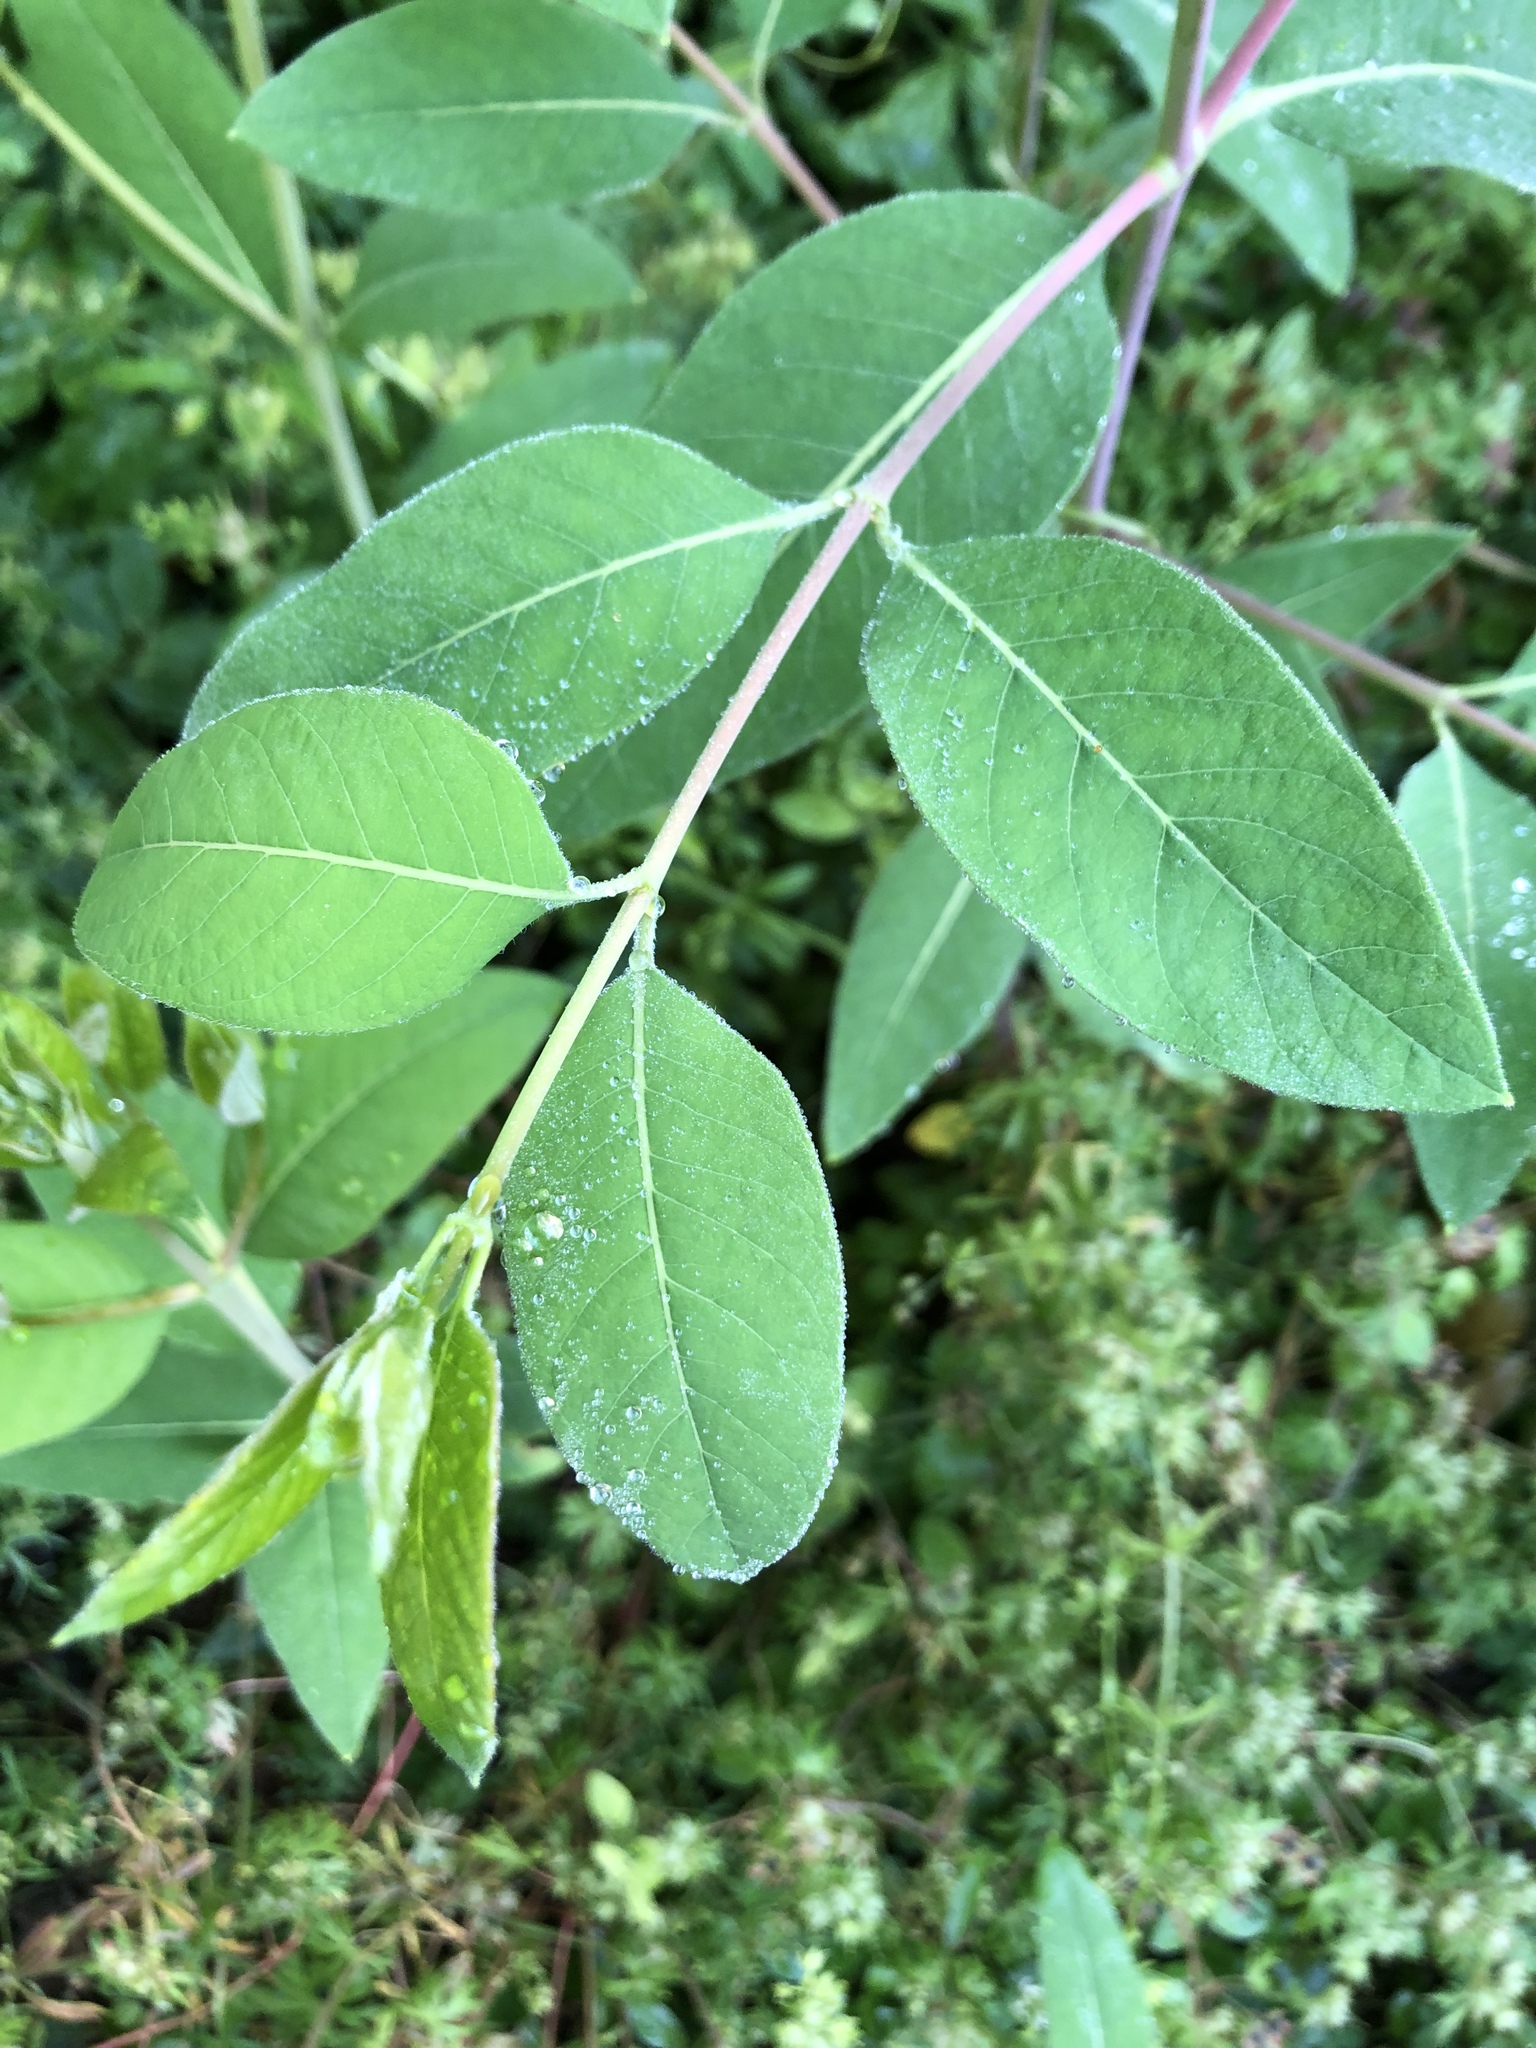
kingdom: Plantae
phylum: Tracheophyta
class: Magnoliopsida
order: Gentianales
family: Apocynaceae
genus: Apocynum
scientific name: Apocynum cannabinum
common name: Hemp dogbane
